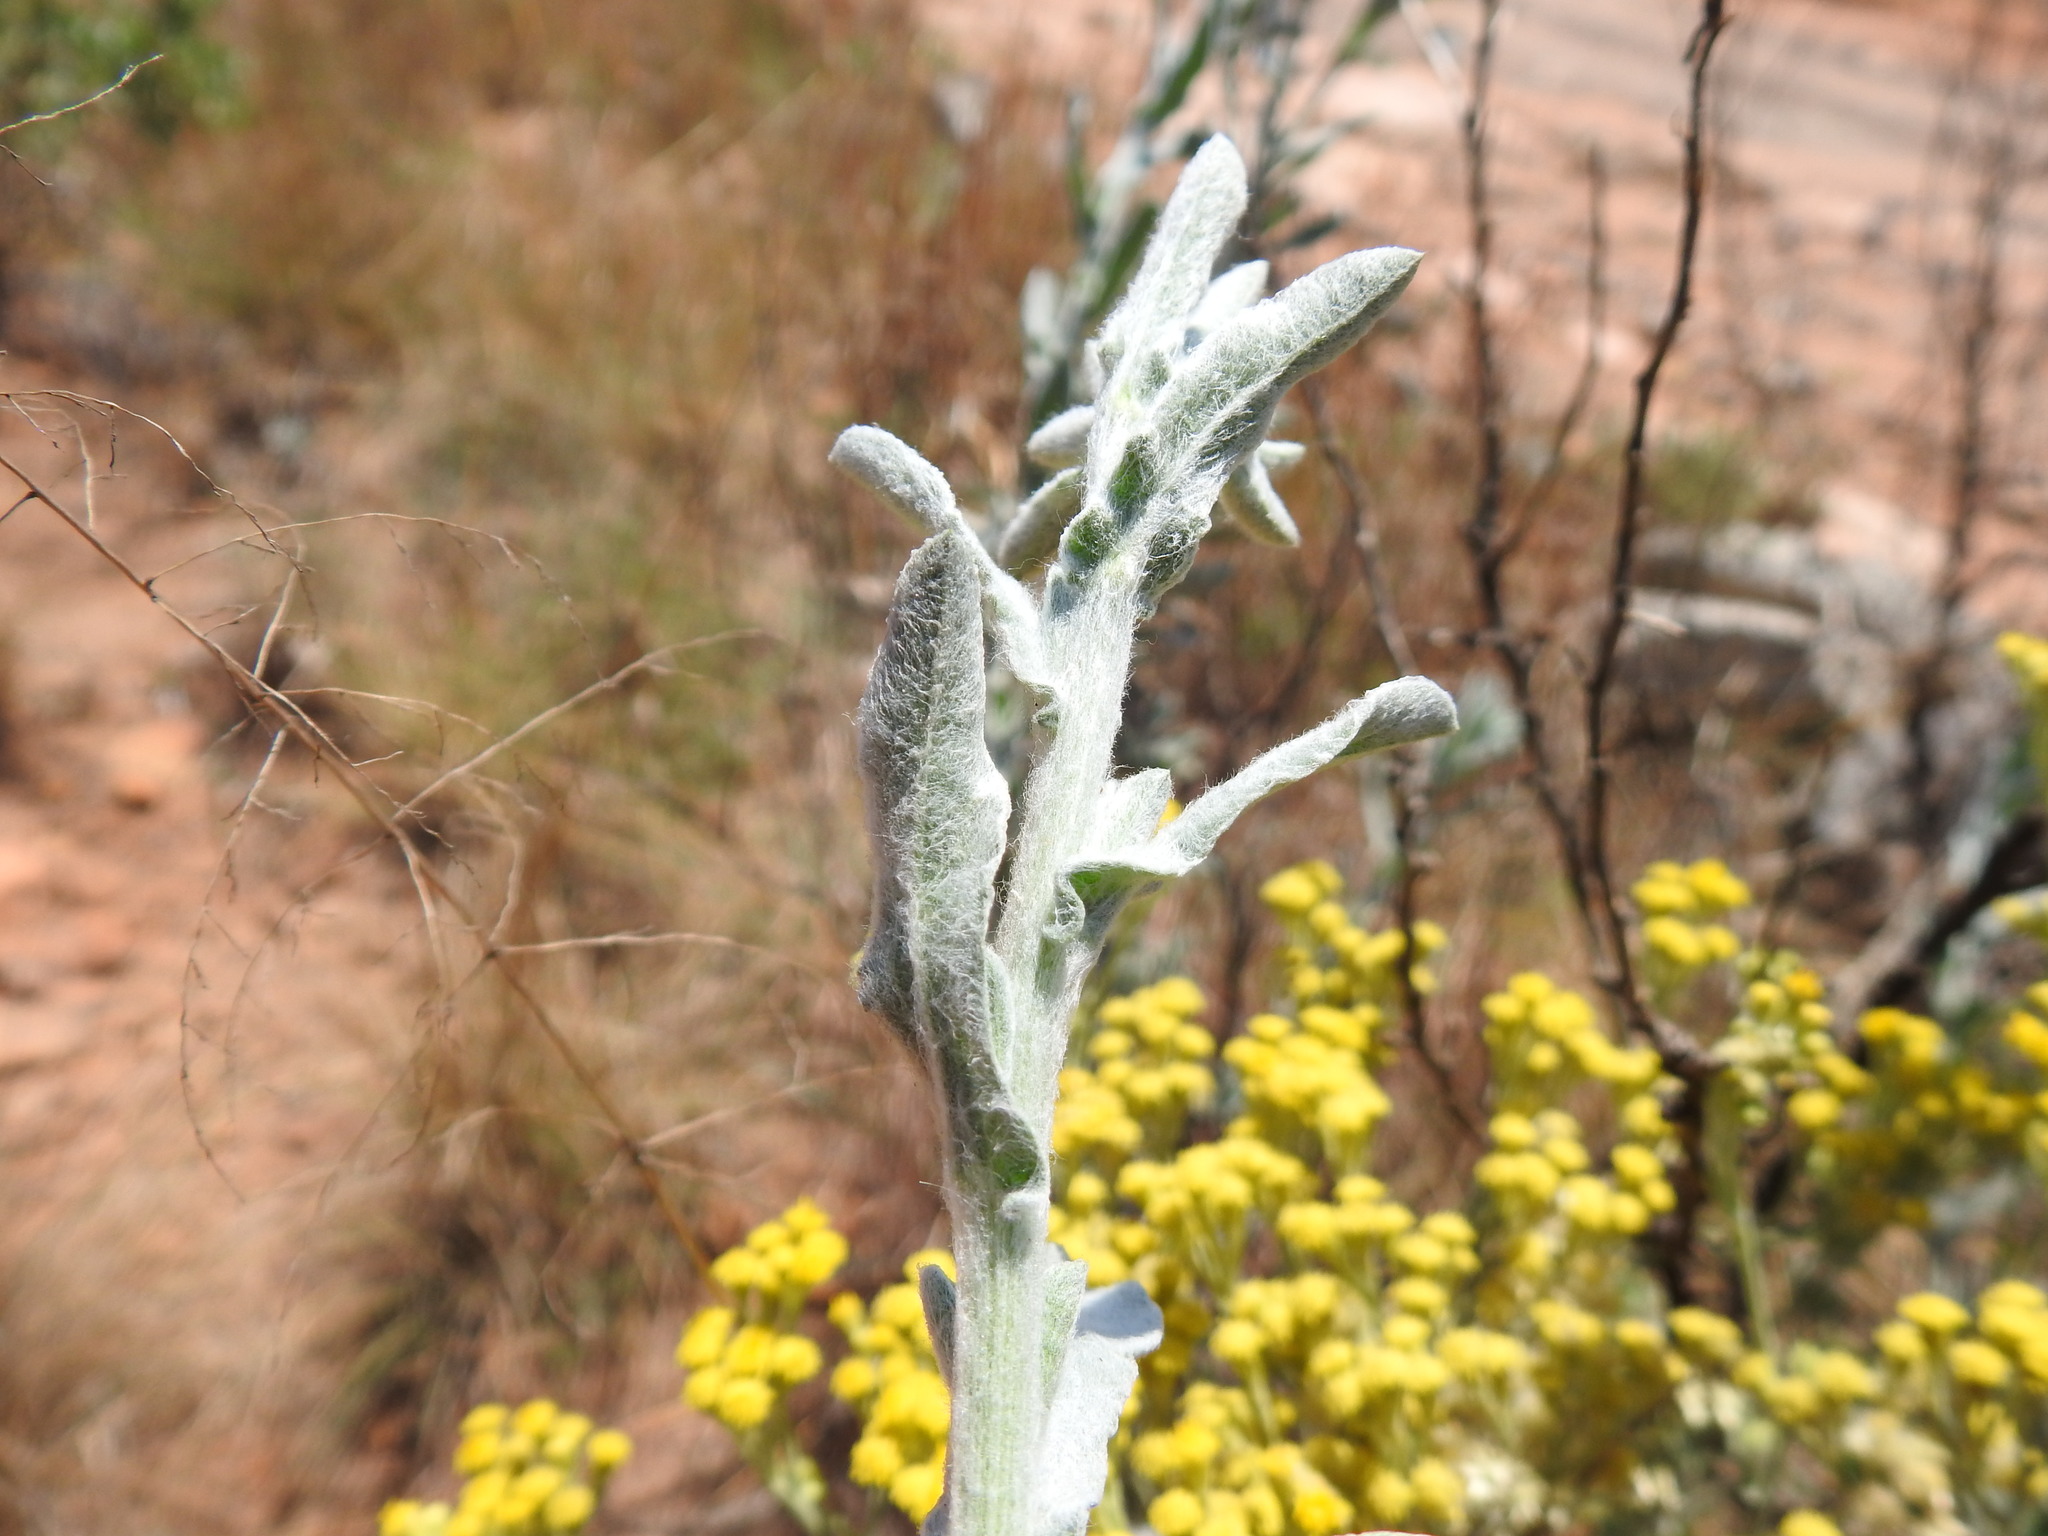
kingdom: Plantae
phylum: Tracheophyta
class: Magnoliopsida
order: Asterales
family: Asteraceae
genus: Nidorella
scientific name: Nidorella hottentotica
